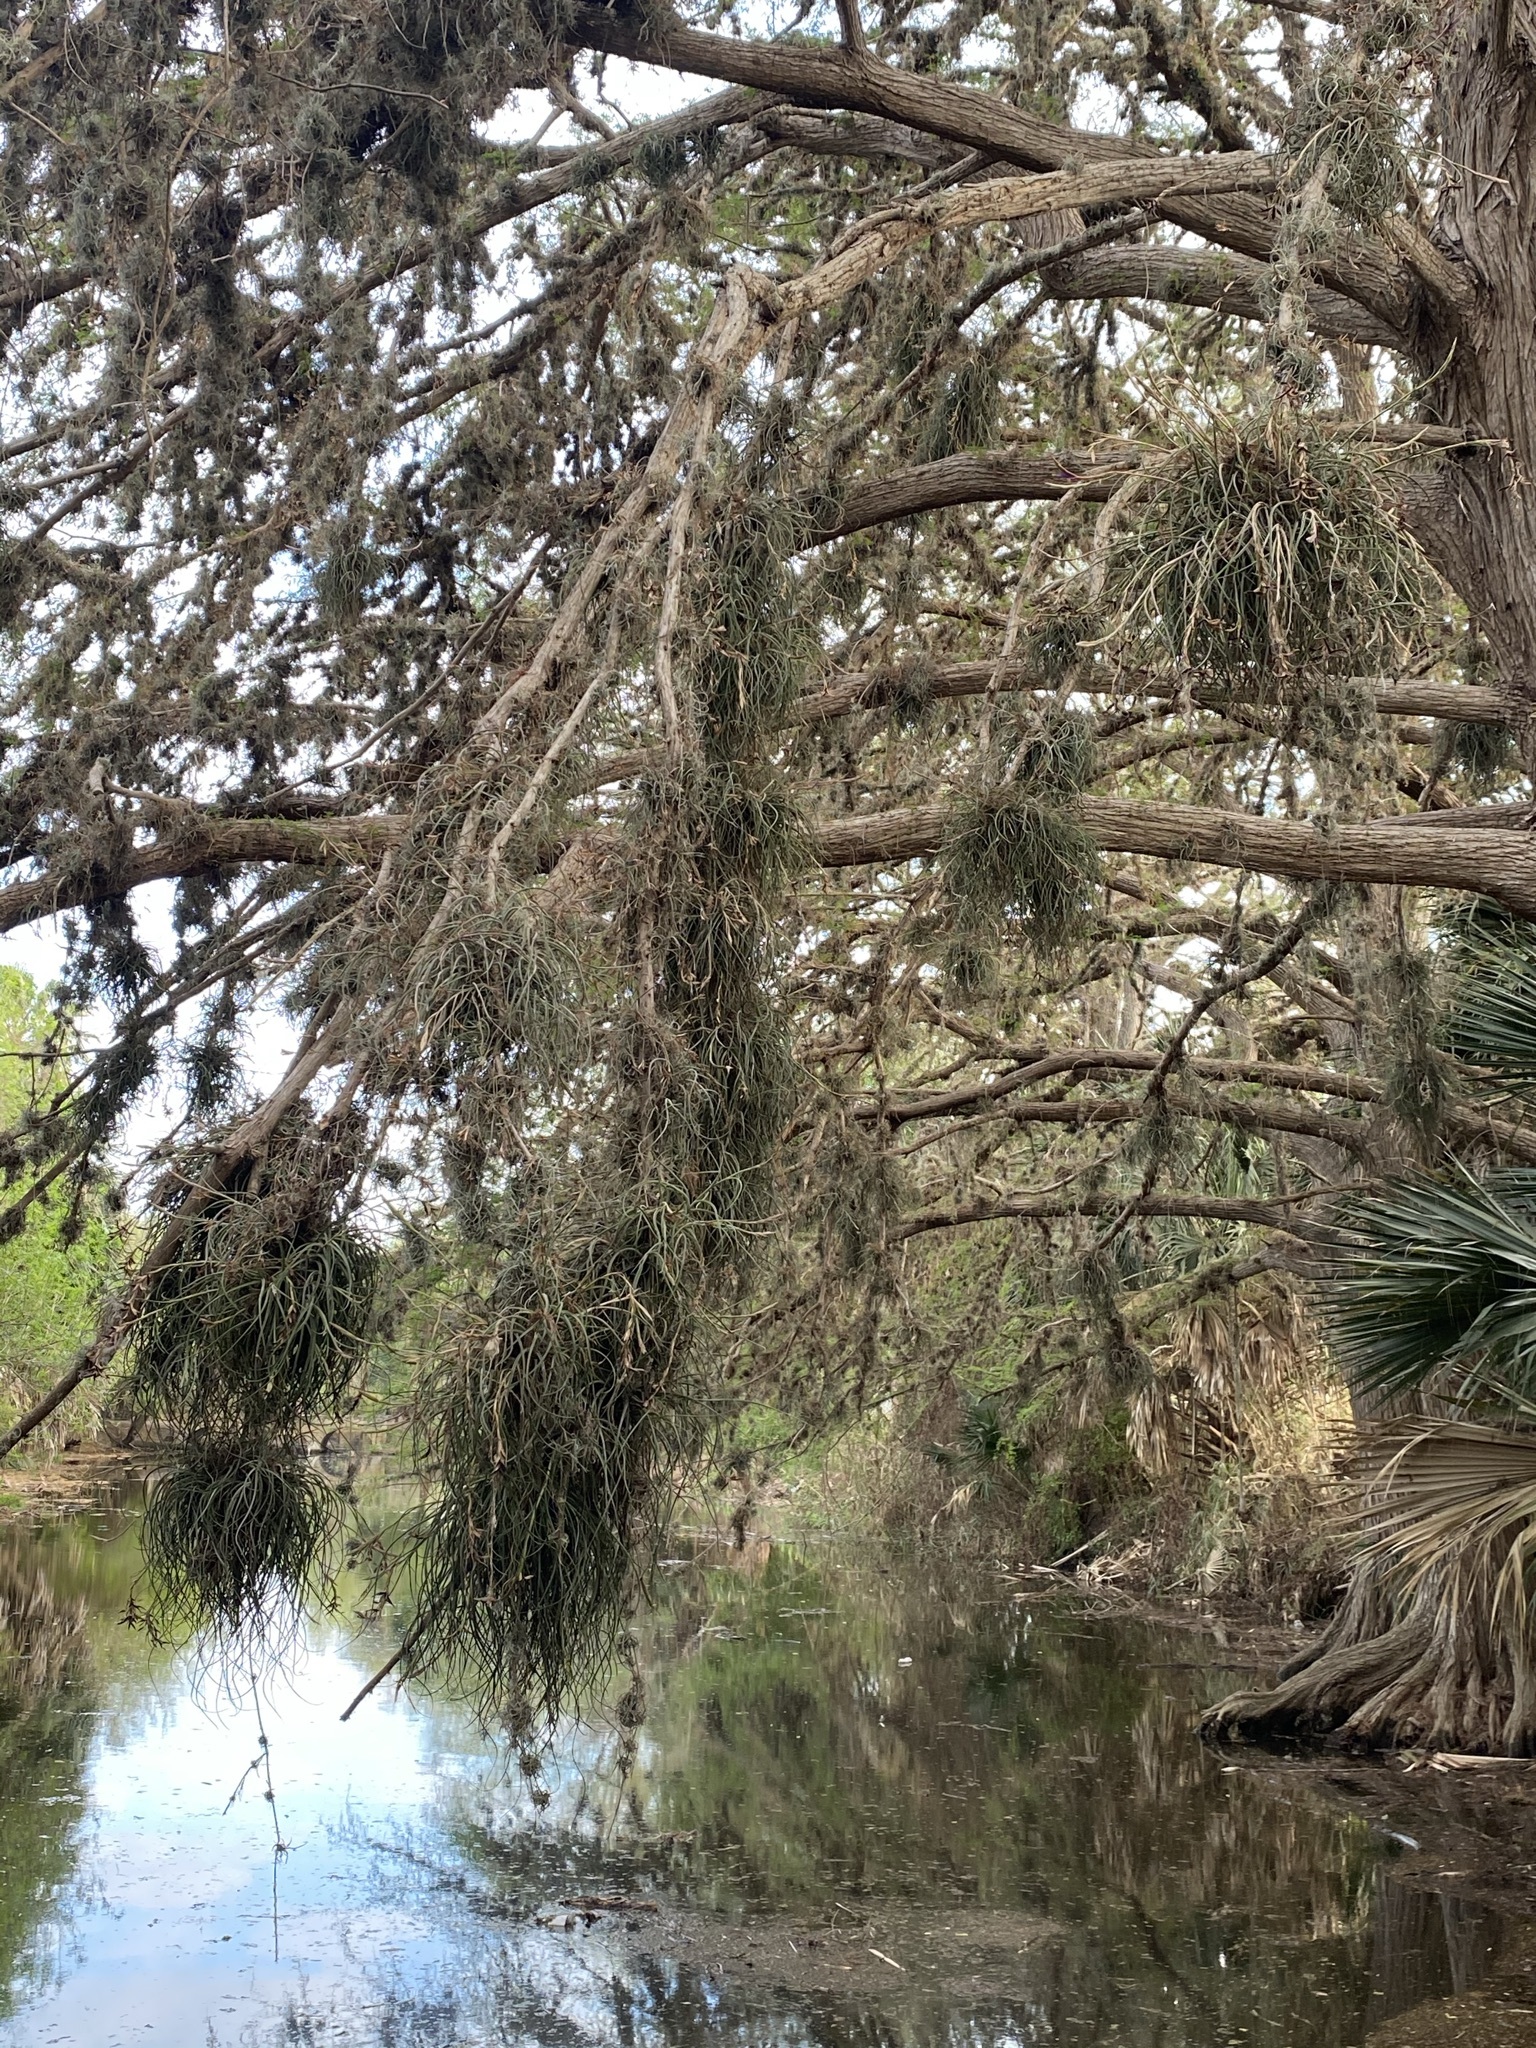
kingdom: Plantae
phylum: Tracheophyta
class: Liliopsida
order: Poales
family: Bromeliaceae
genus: Tillandsia
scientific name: Tillandsia baileyi
